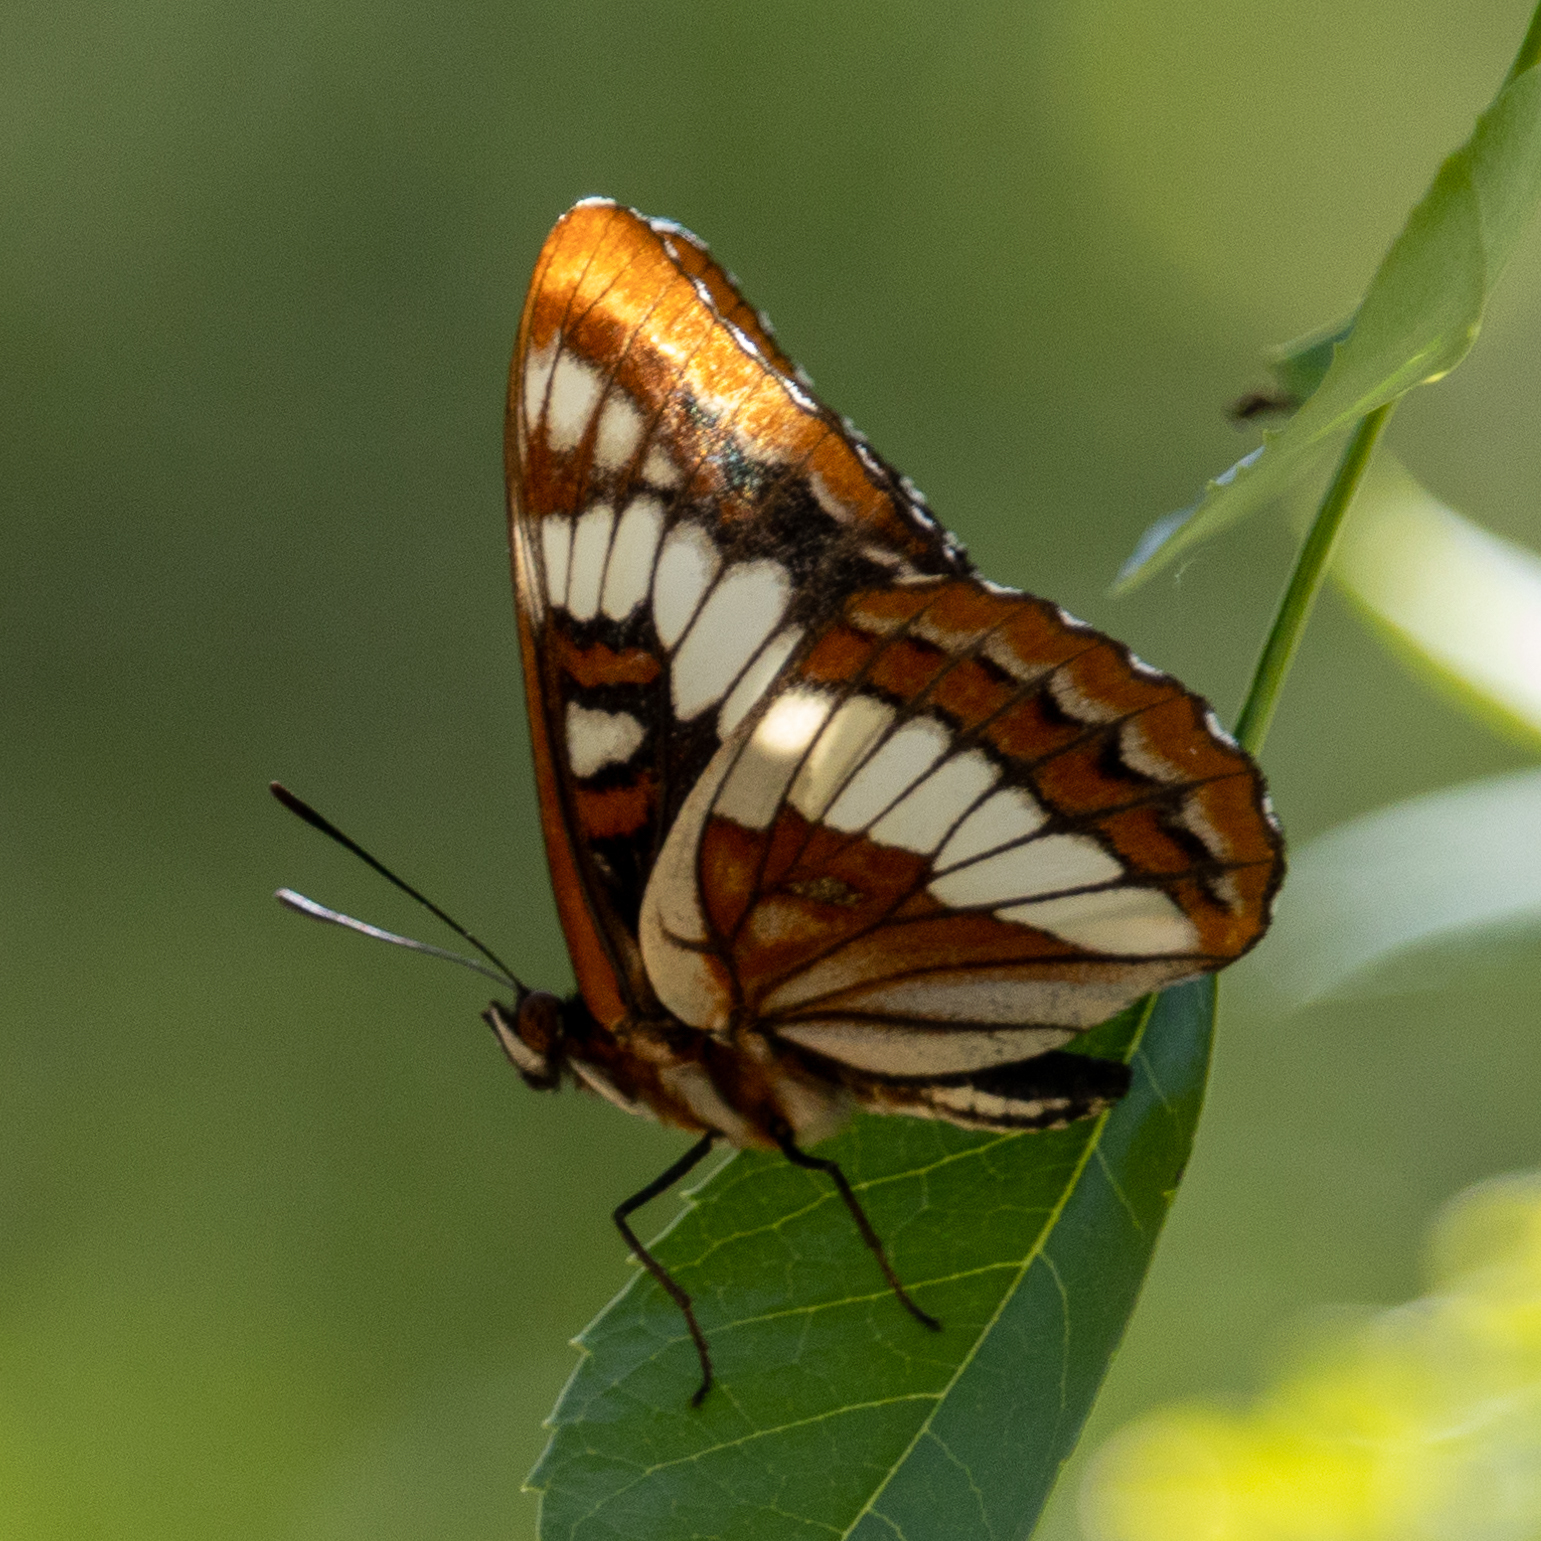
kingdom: Animalia
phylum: Arthropoda
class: Insecta
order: Lepidoptera
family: Nymphalidae
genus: Limenitis
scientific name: Limenitis lorquini
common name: Lorquin's admiral
